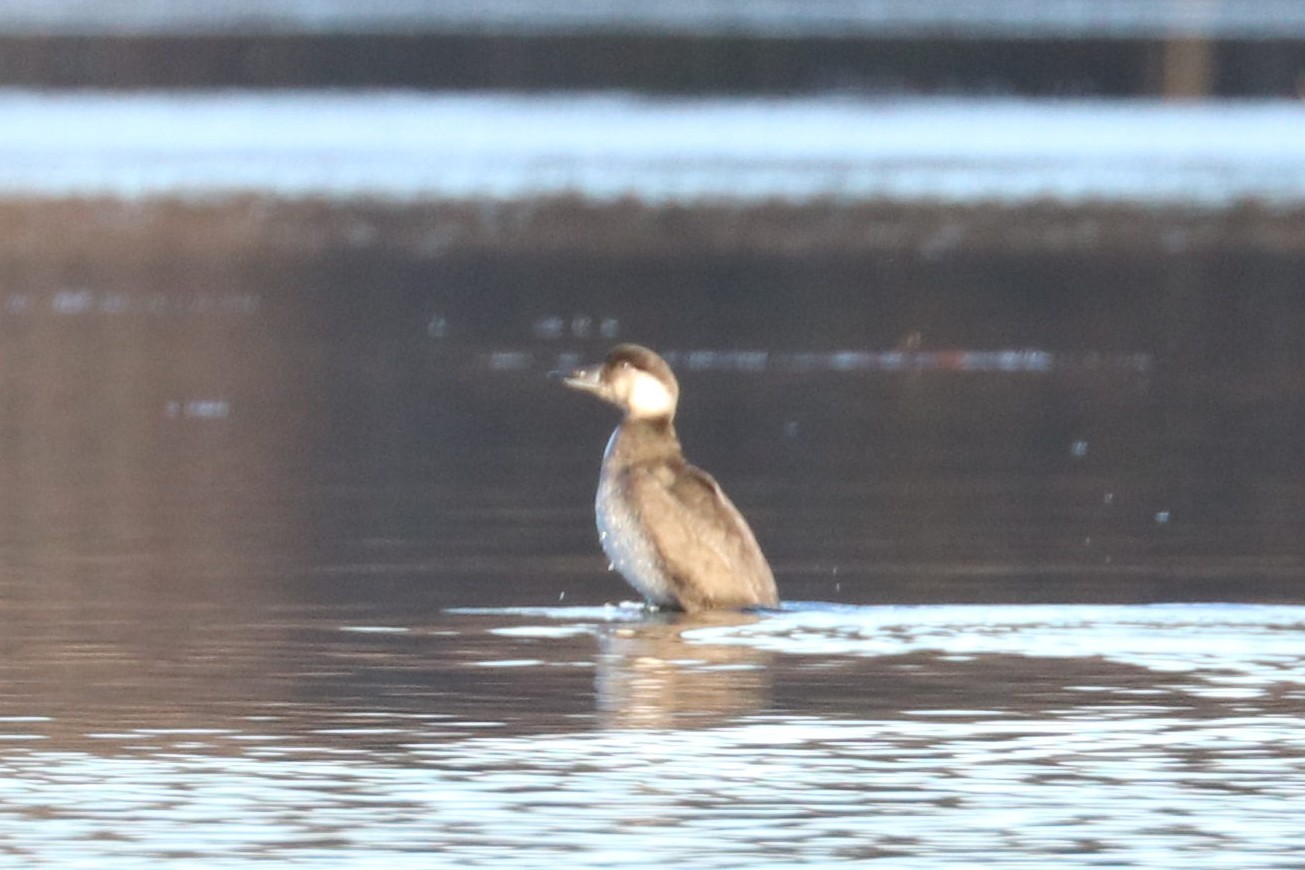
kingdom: Animalia
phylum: Chordata
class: Aves
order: Anseriformes
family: Anatidae
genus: Melanitta
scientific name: Melanitta nigra
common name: Common scoter
